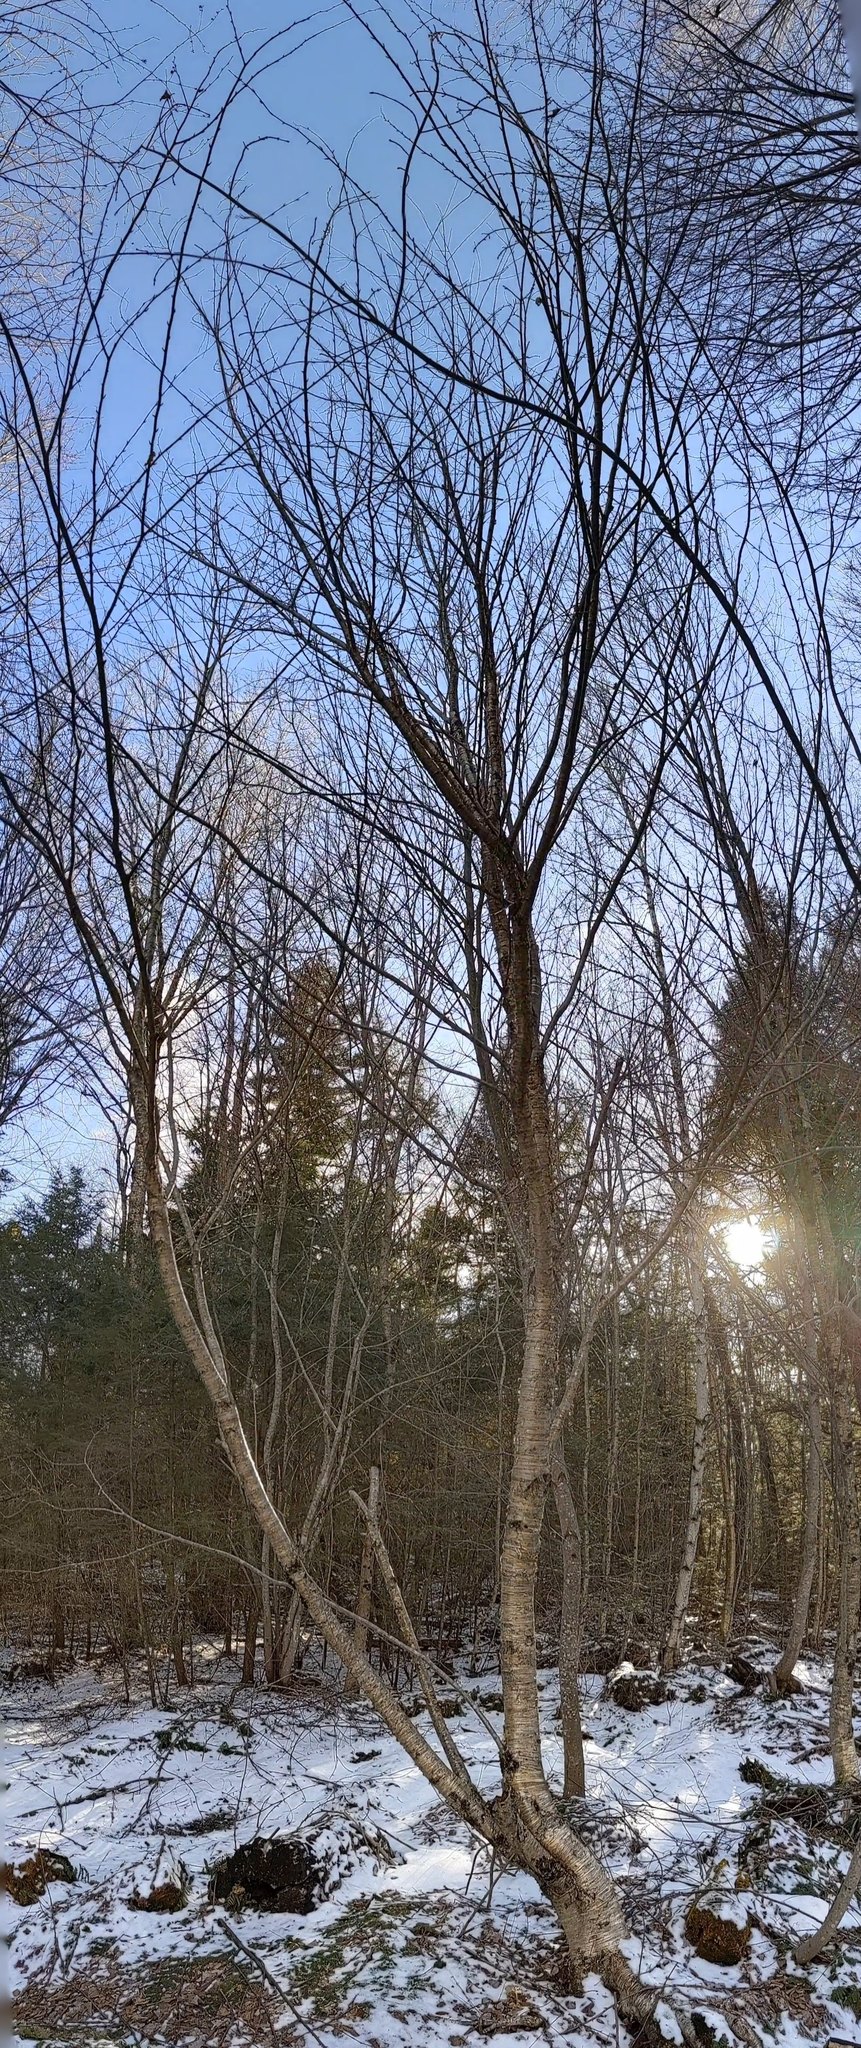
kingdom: Plantae
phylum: Tracheophyta
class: Magnoliopsida
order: Fagales
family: Betulaceae
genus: Betula
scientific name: Betula alleghaniensis
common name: Yellow birch
